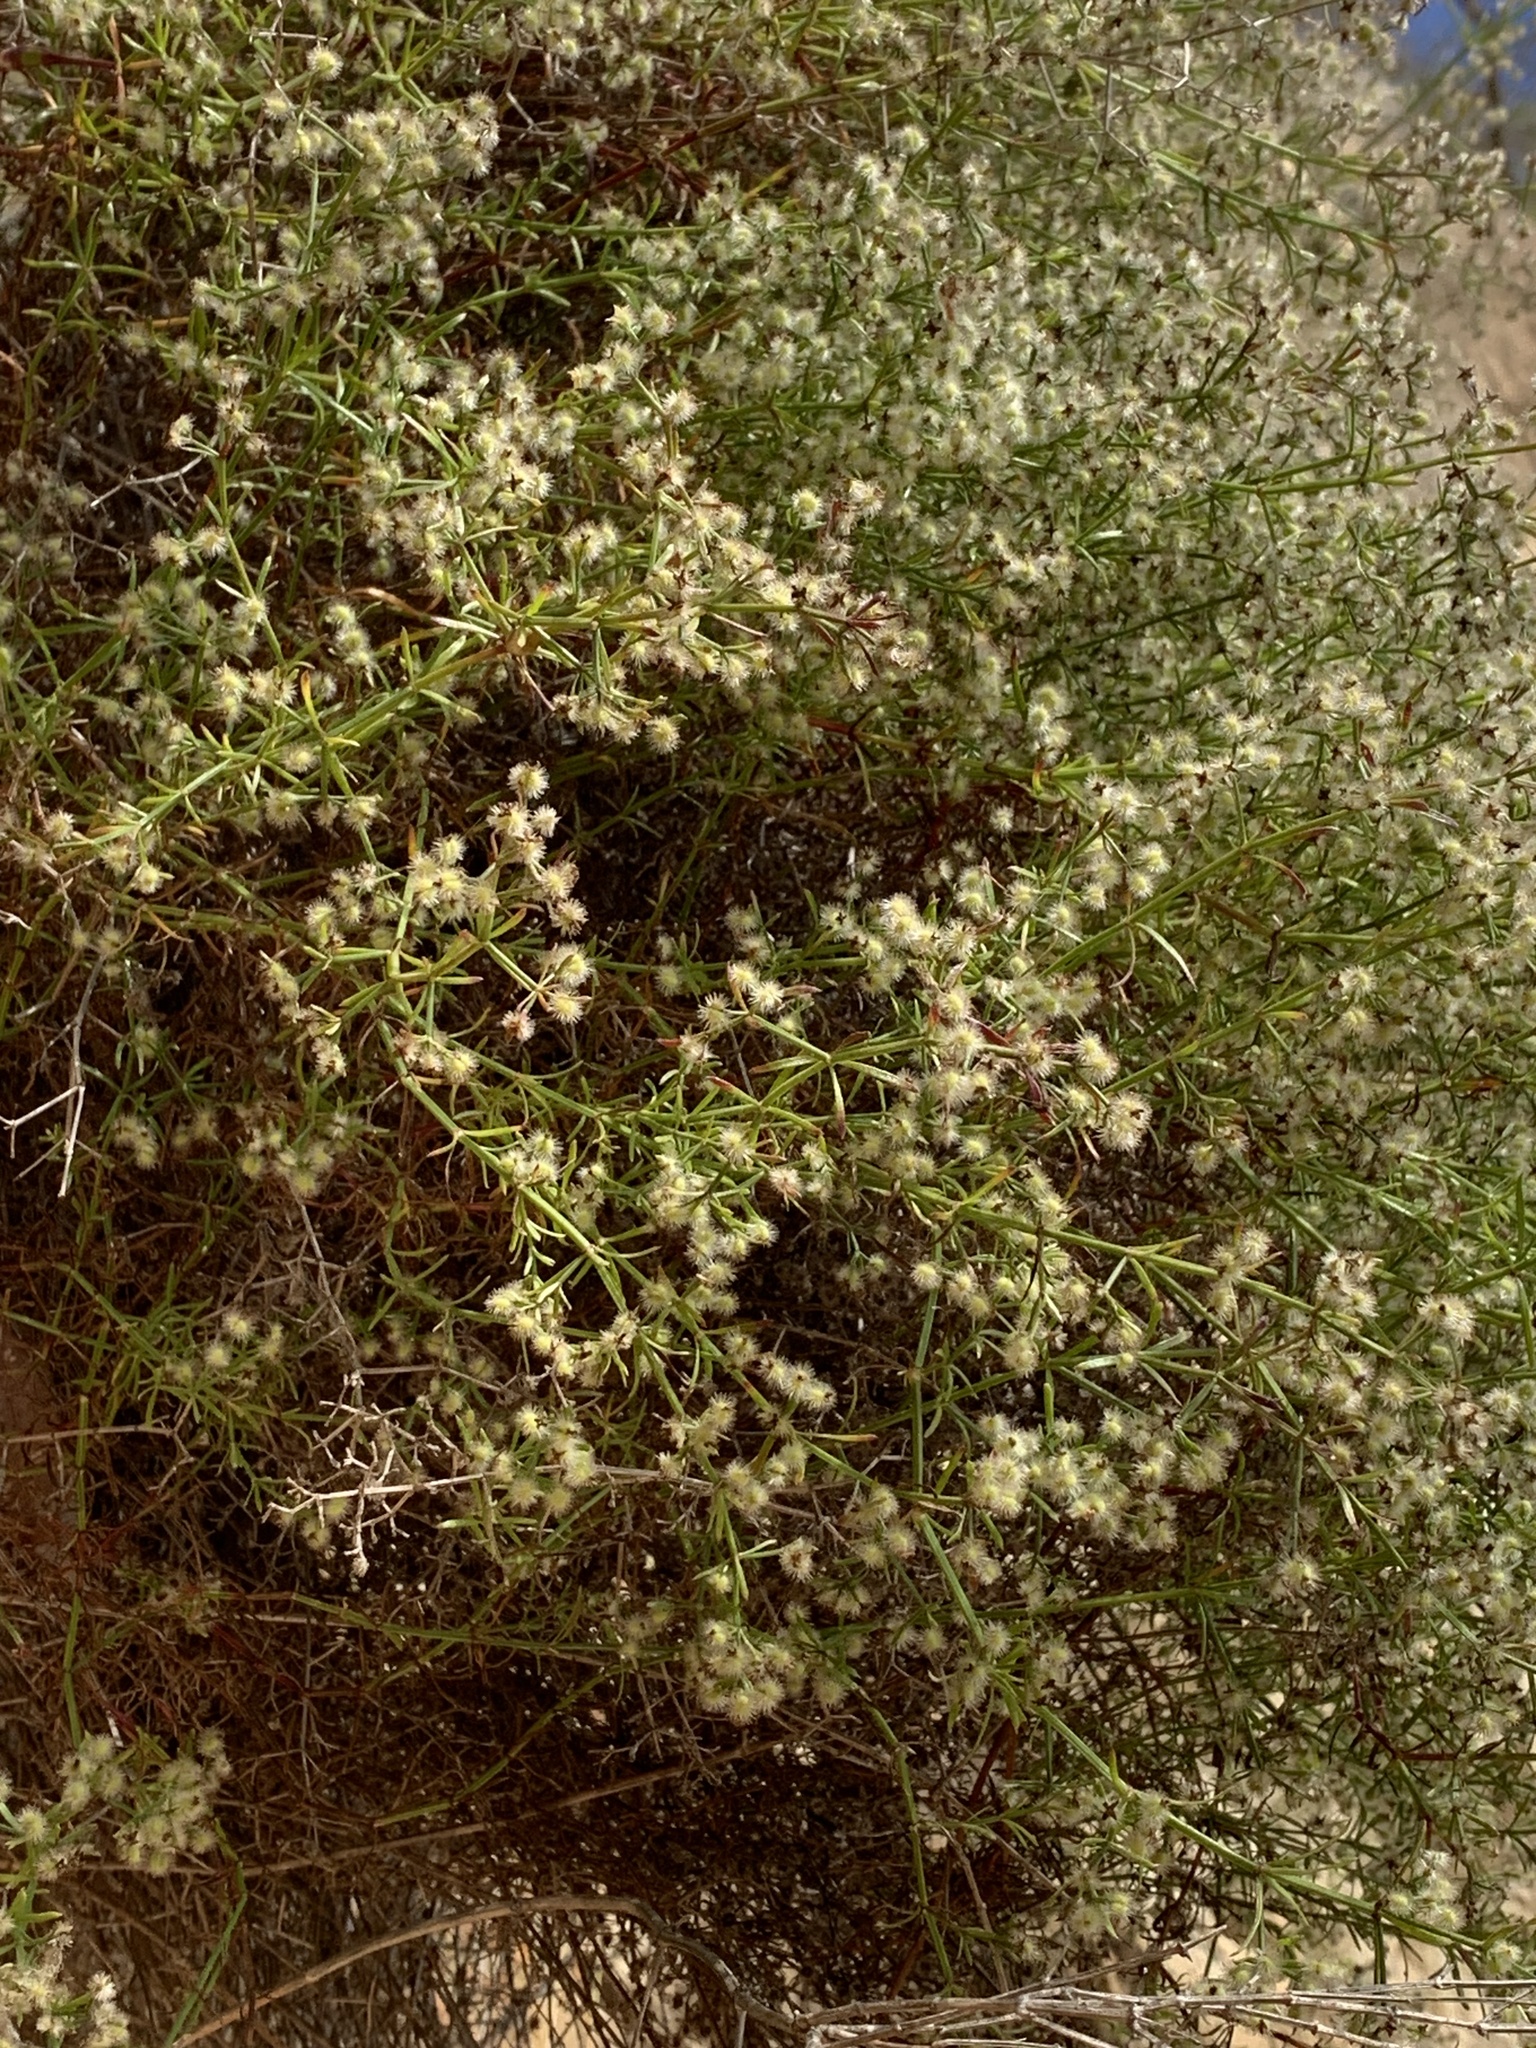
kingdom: Plantae
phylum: Tracheophyta
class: Magnoliopsida
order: Gentianales
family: Rubiaceae
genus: Galium
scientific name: Galium catalinense
